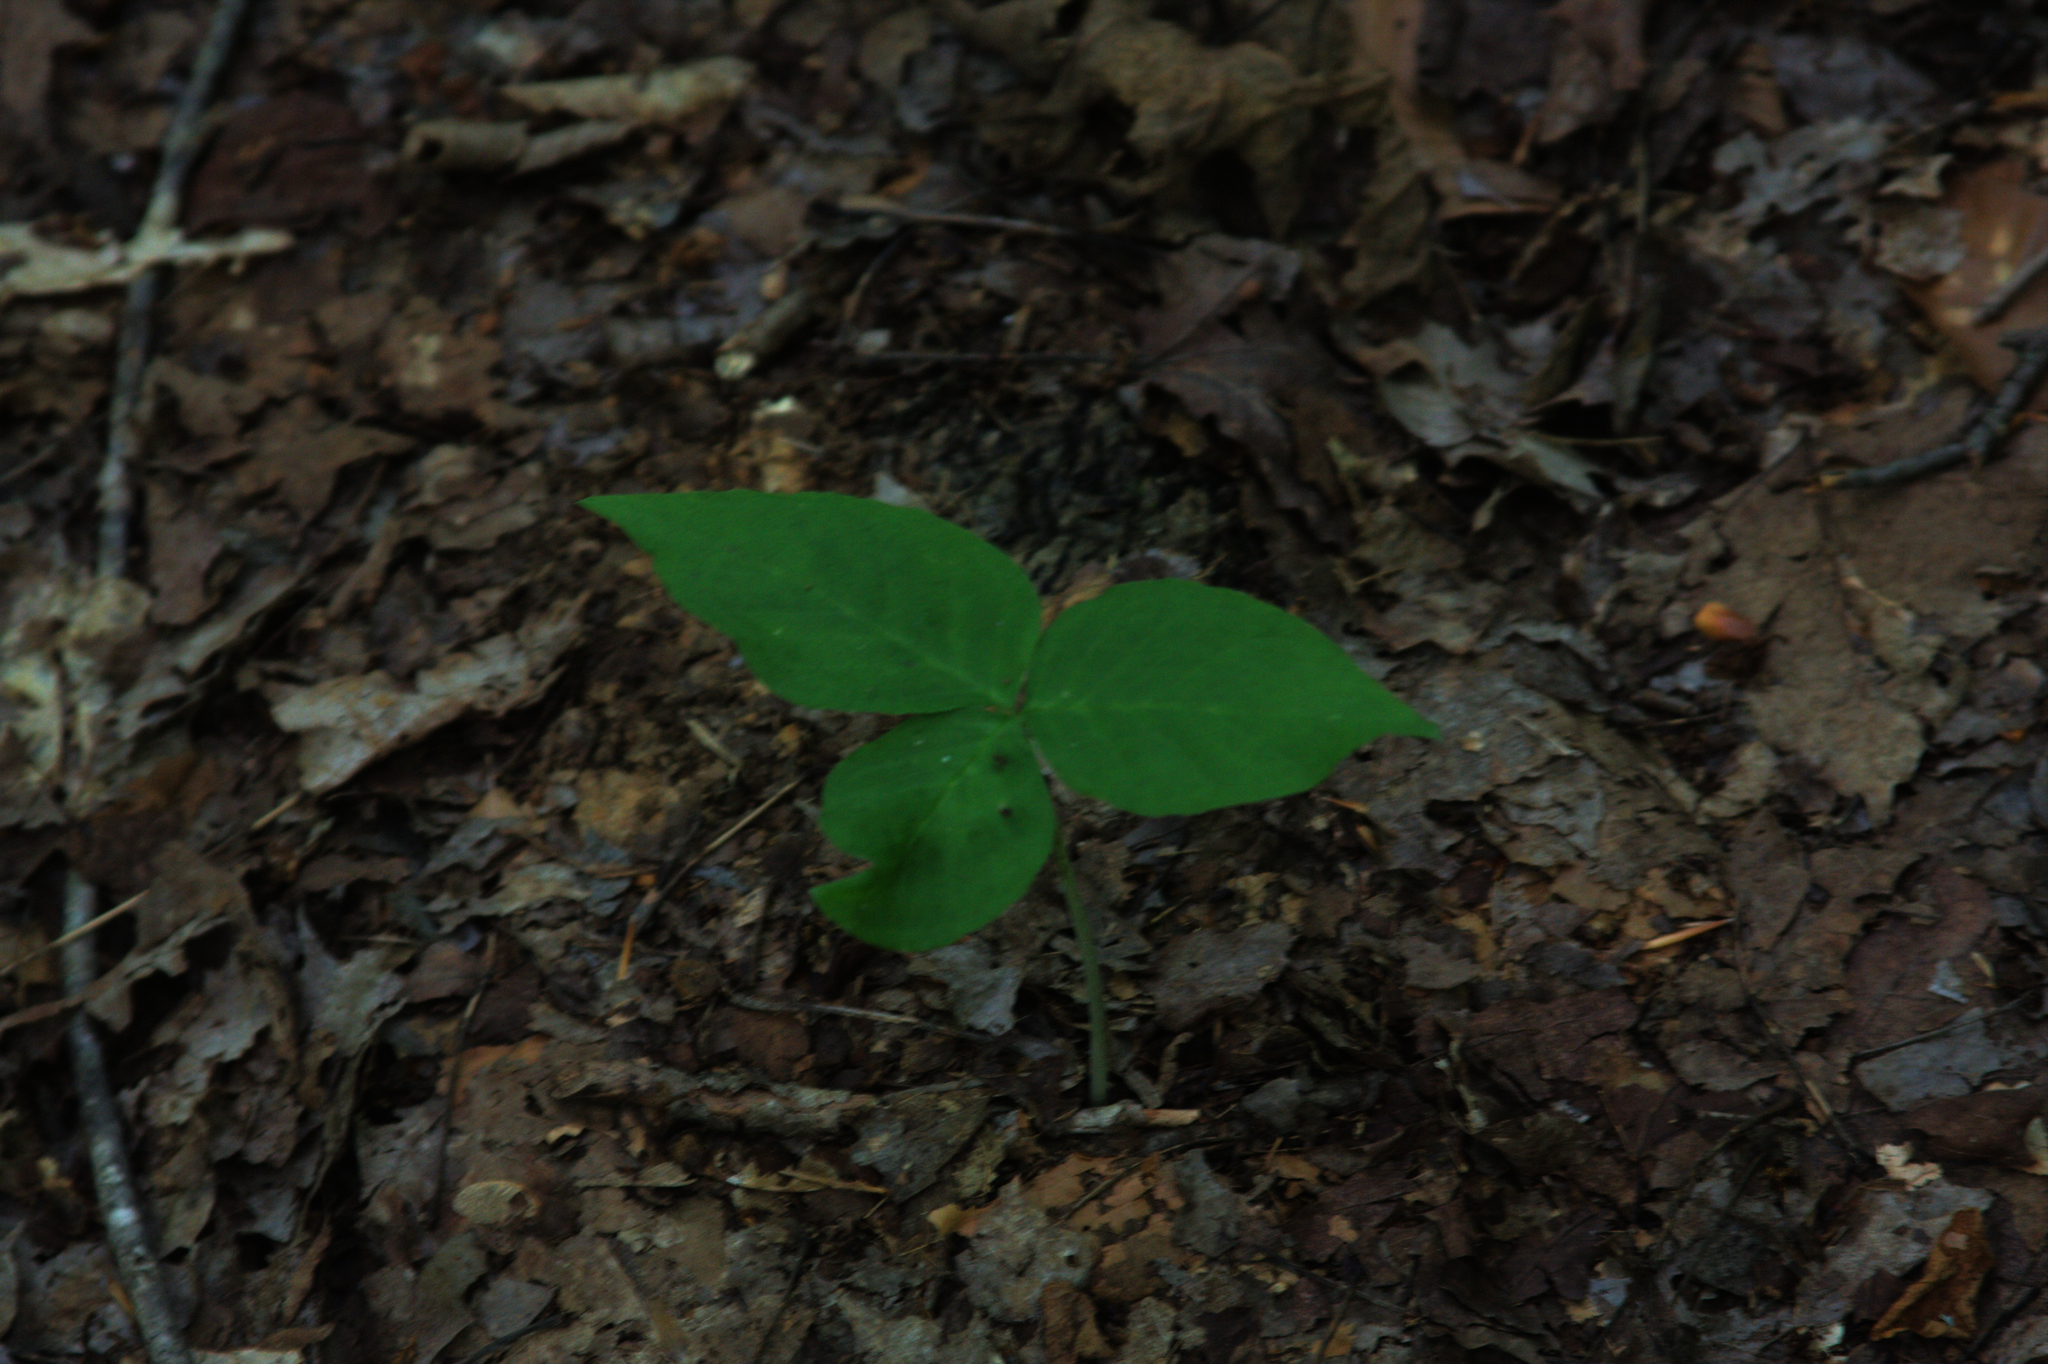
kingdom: Plantae
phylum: Tracheophyta
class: Liliopsida
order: Alismatales
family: Araceae
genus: Arisaema
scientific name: Arisaema triphyllum
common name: Jack-in-the-pulpit
